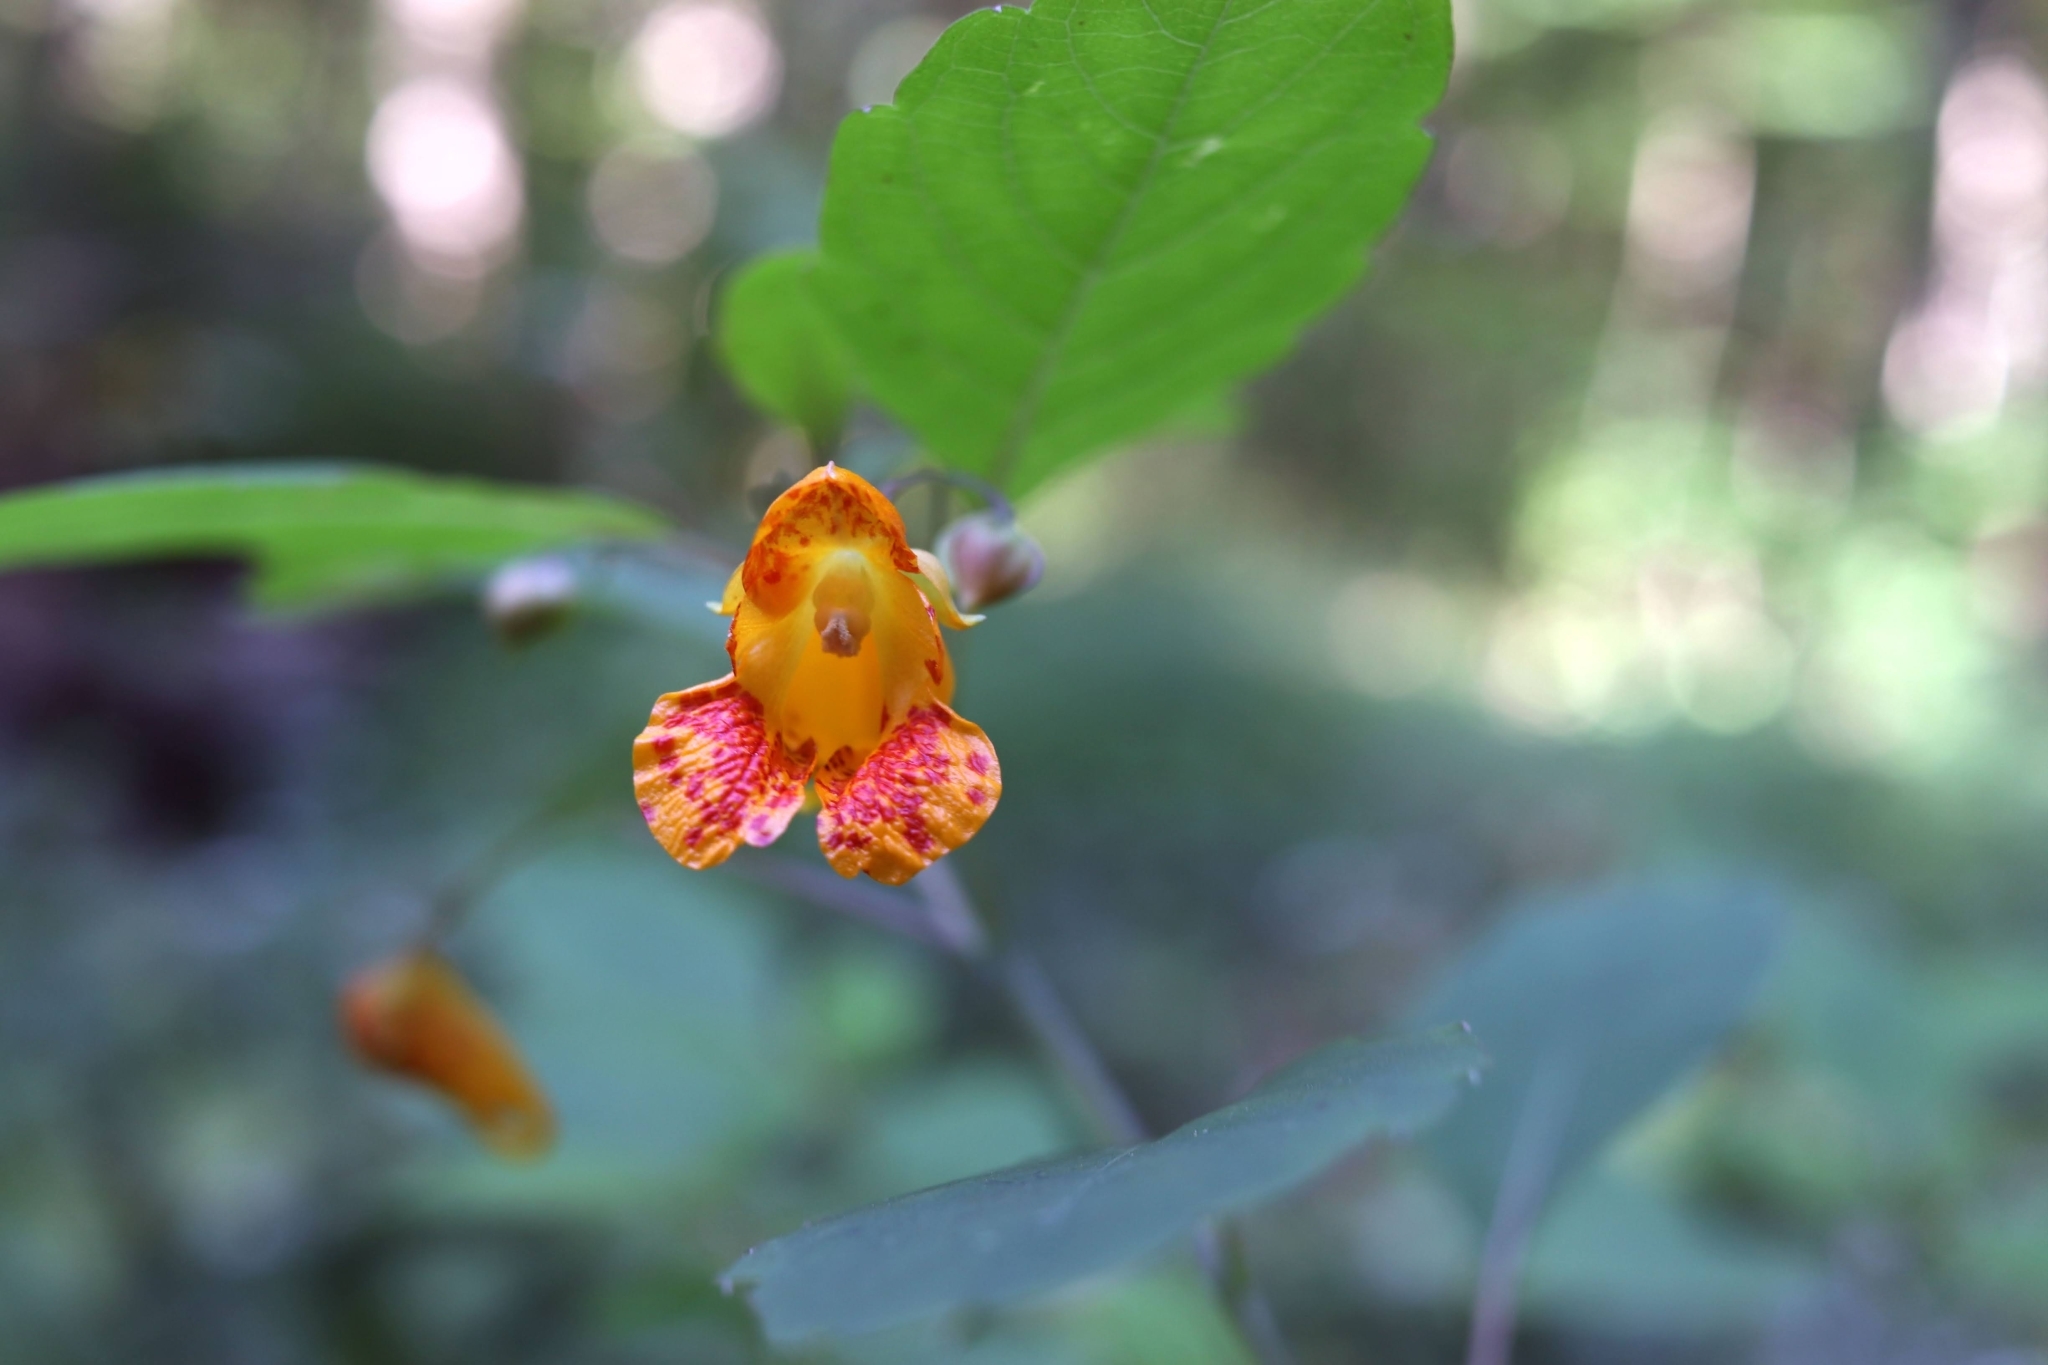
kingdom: Plantae
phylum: Tracheophyta
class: Magnoliopsida
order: Ericales
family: Balsaminaceae
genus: Impatiens
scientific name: Impatiens capensis
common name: Orange balsam
